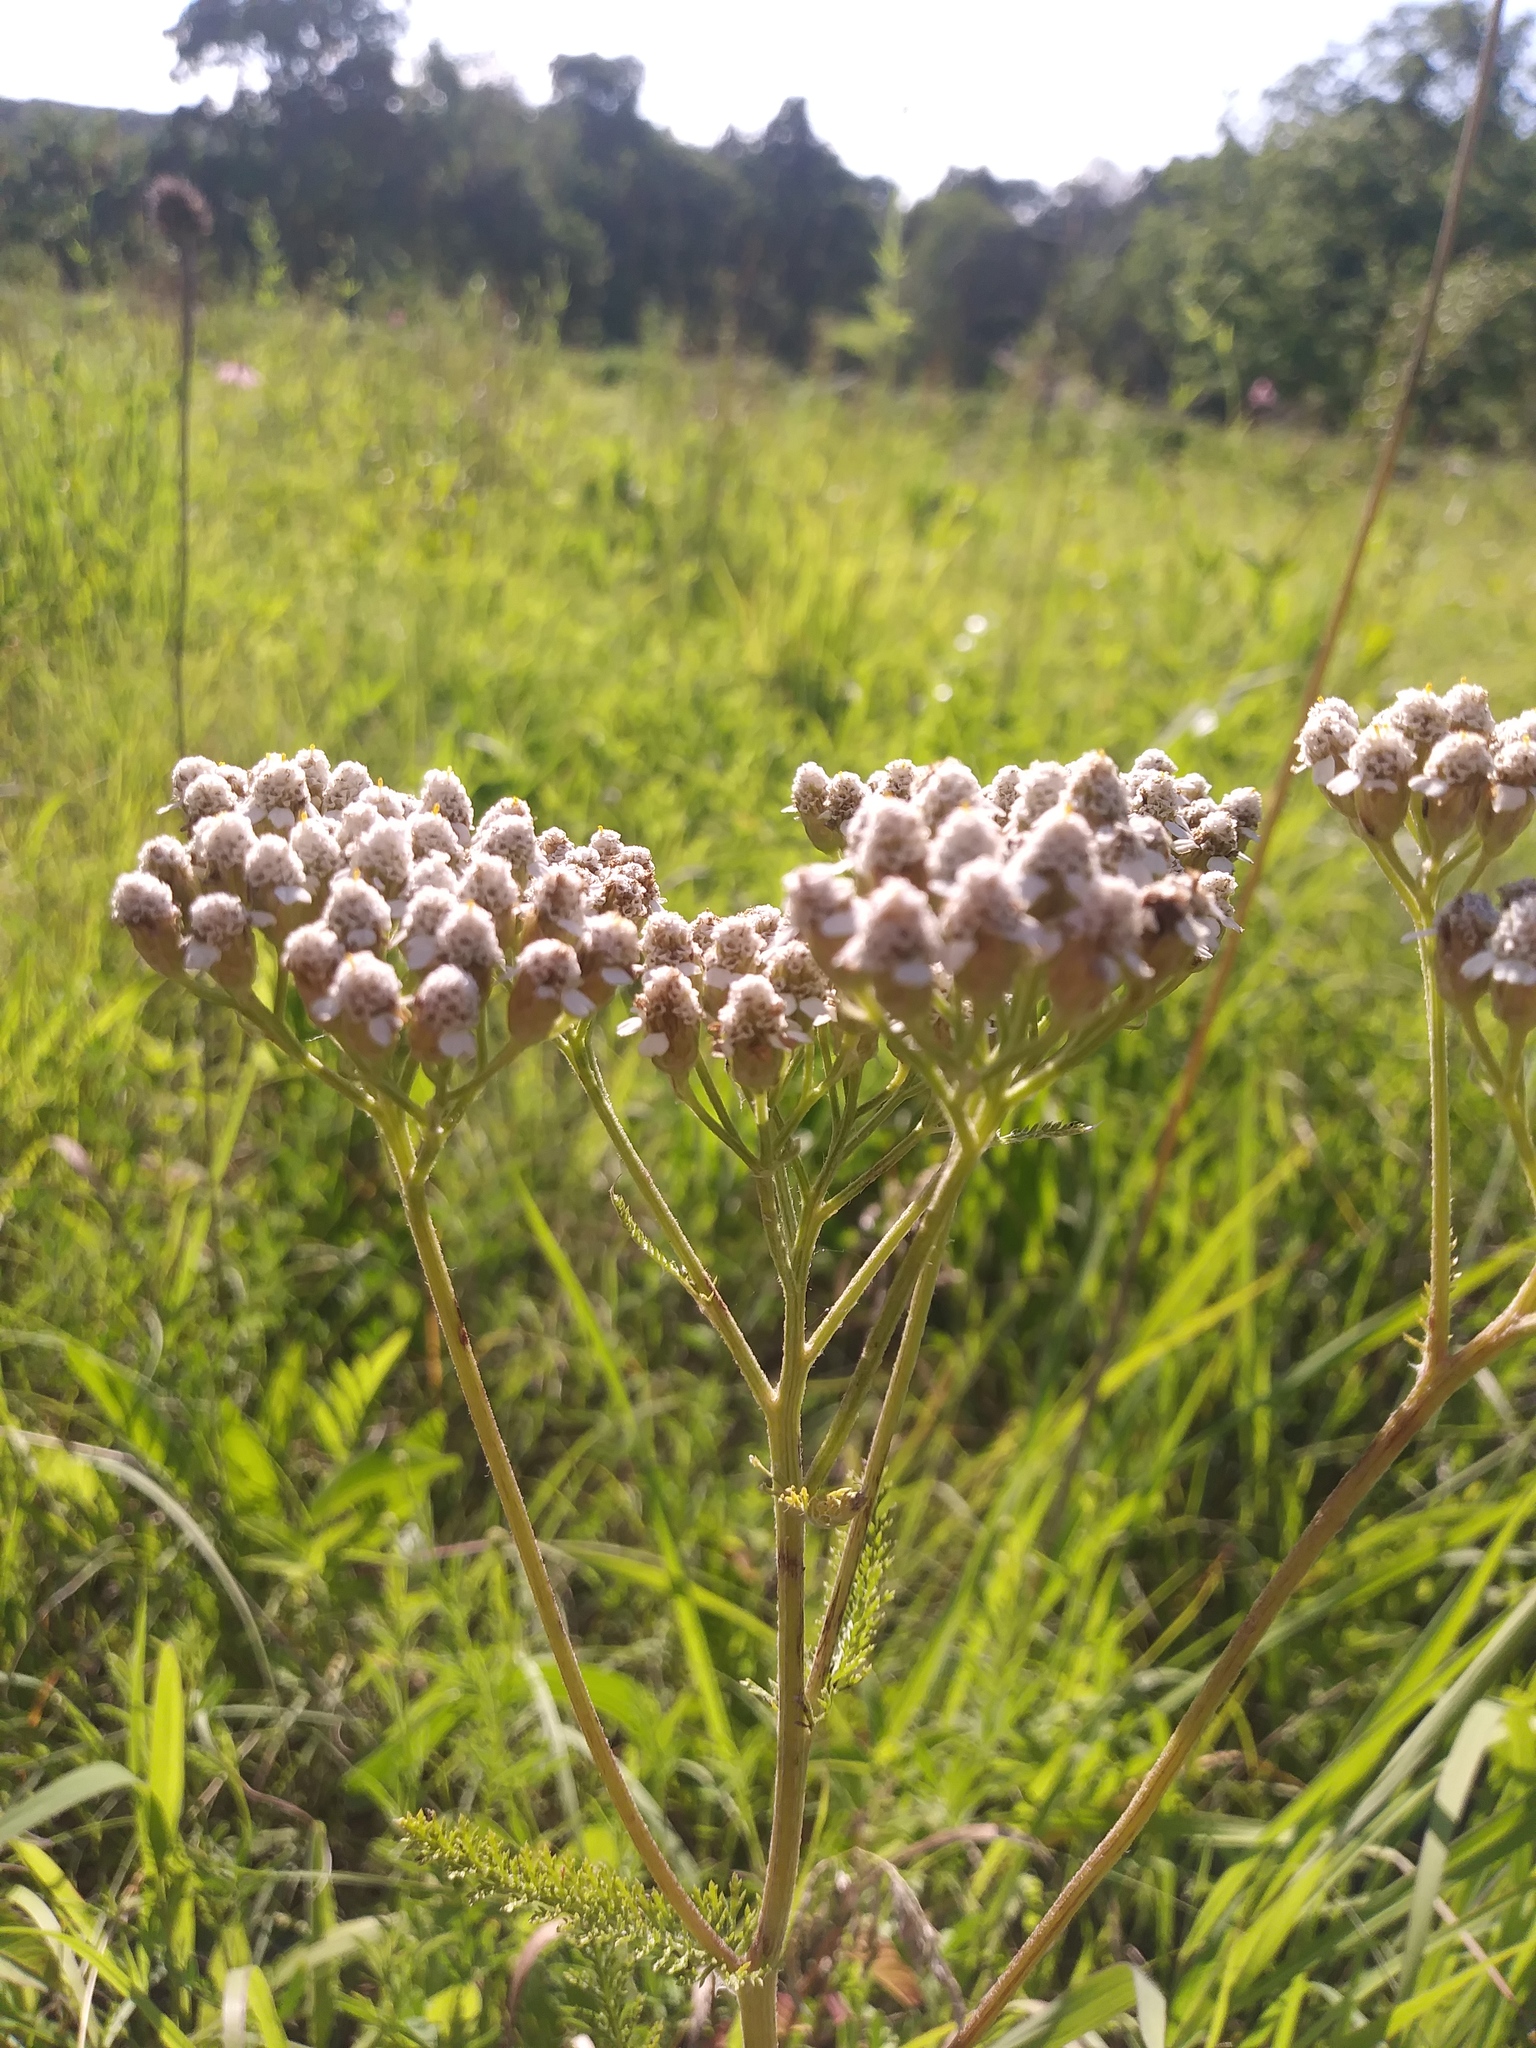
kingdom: Plantae
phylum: Tracheophyta
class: Magnoliopsida
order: Asterales
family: Asteraceae
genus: Achillea
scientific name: Achillea millefolium
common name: Yarrow
